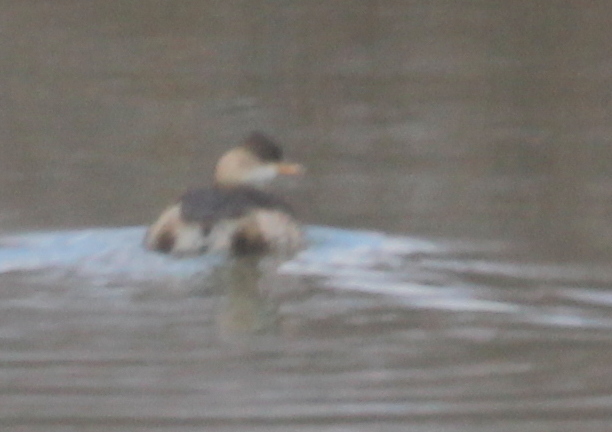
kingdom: Animalia
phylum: Chordata
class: Aves
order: Podicipediformes
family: Podicipedidae
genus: Tachybaptus
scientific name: Tachybaptus ruficollis
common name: Little grebe
